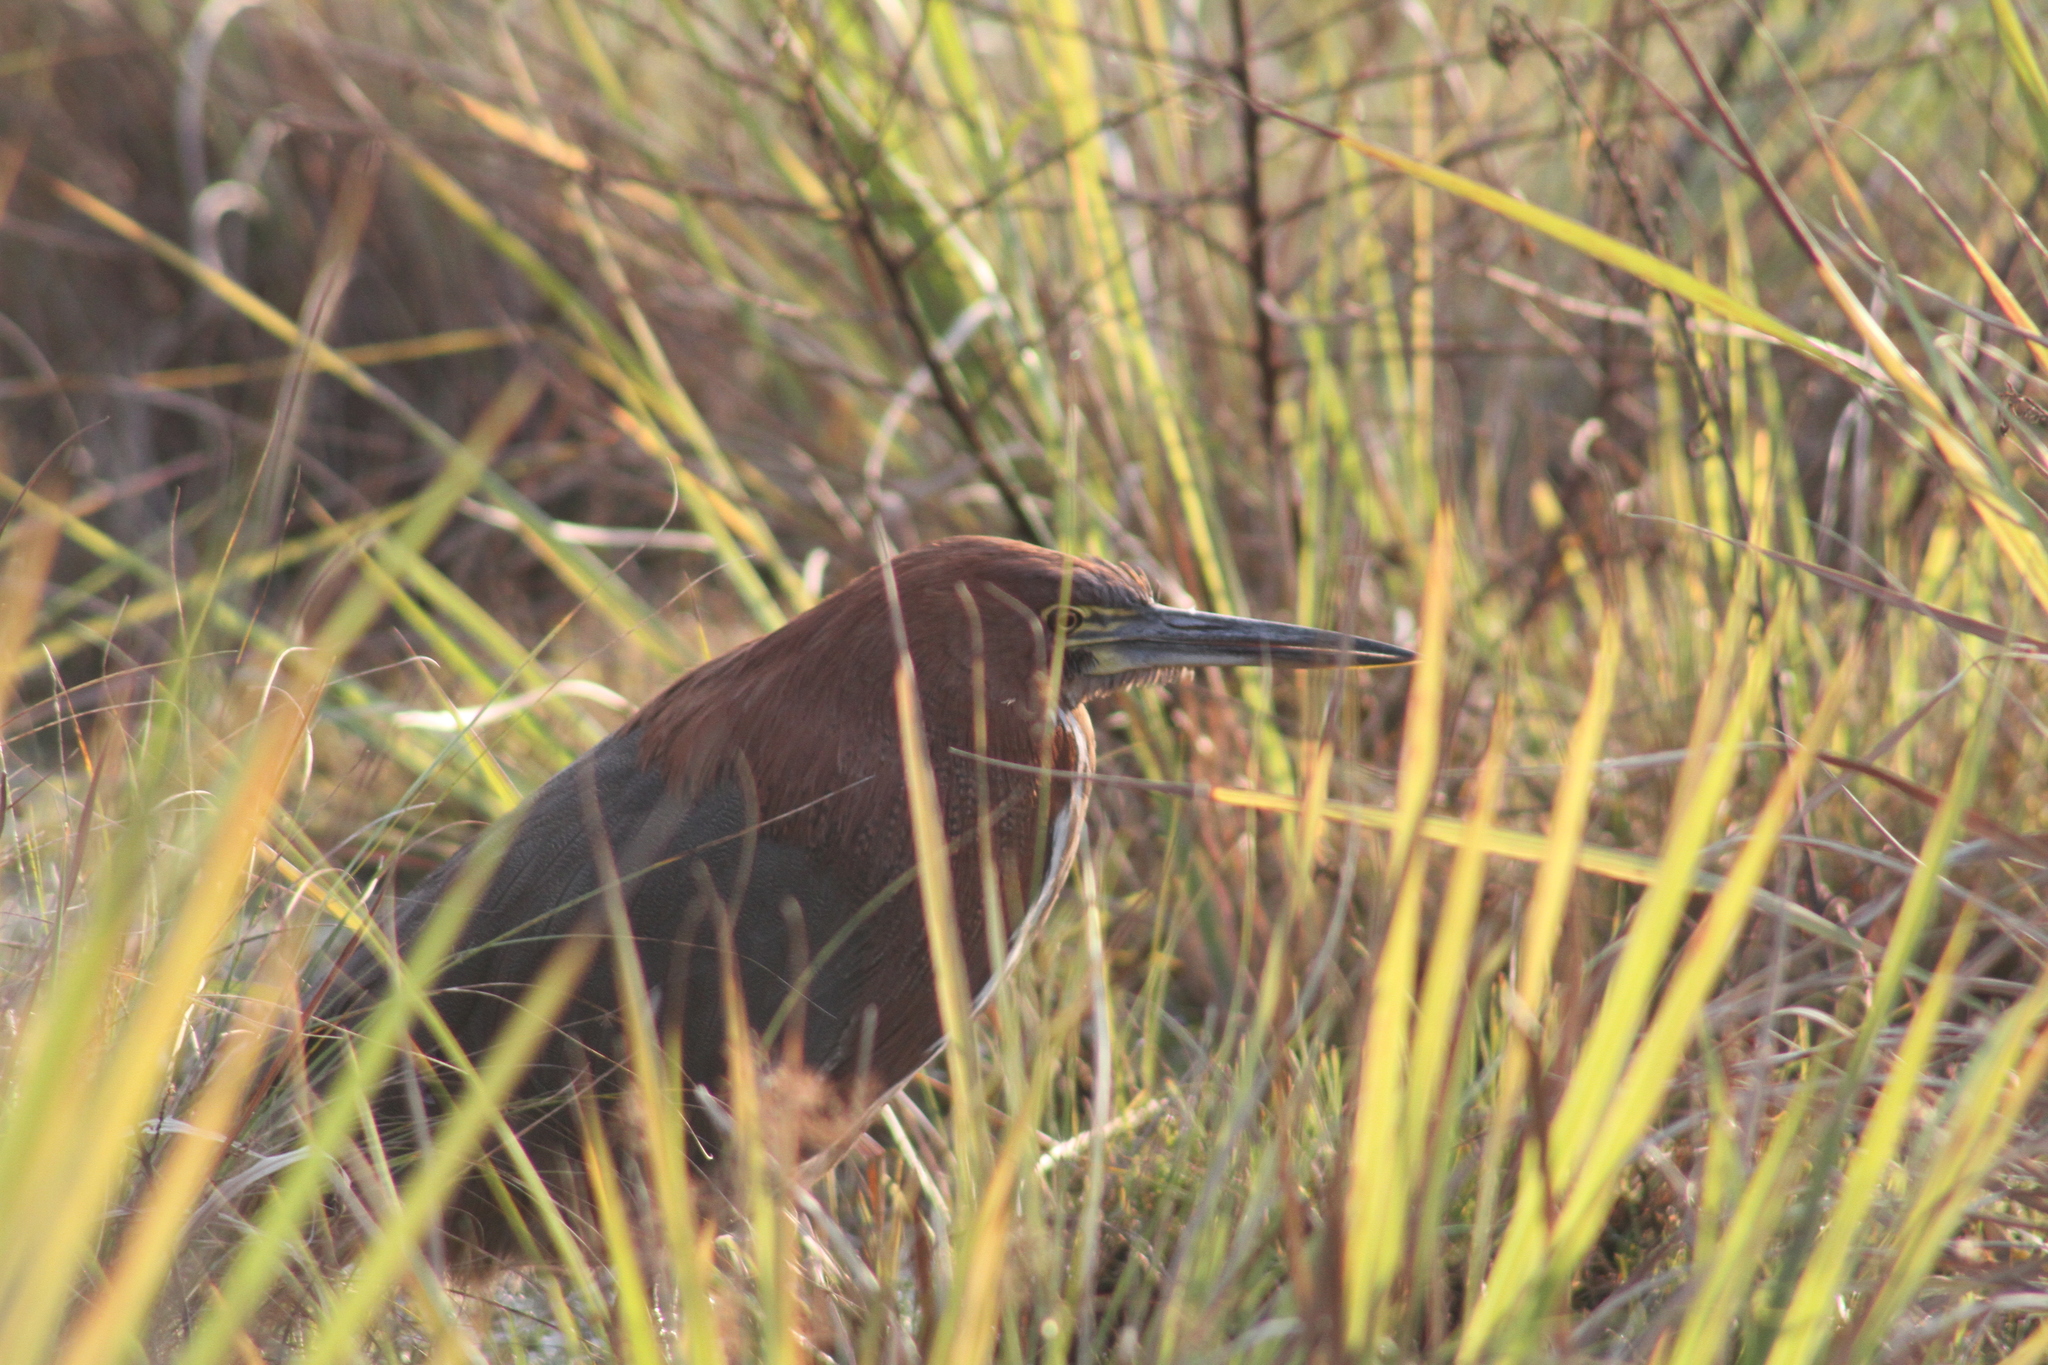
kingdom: Animalia
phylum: Chordata
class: Aves
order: Pelecaniformes
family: Ardeidae
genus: Tigrisoma
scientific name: Tigrisoma lineatum
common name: Rufescent tiger-heron
